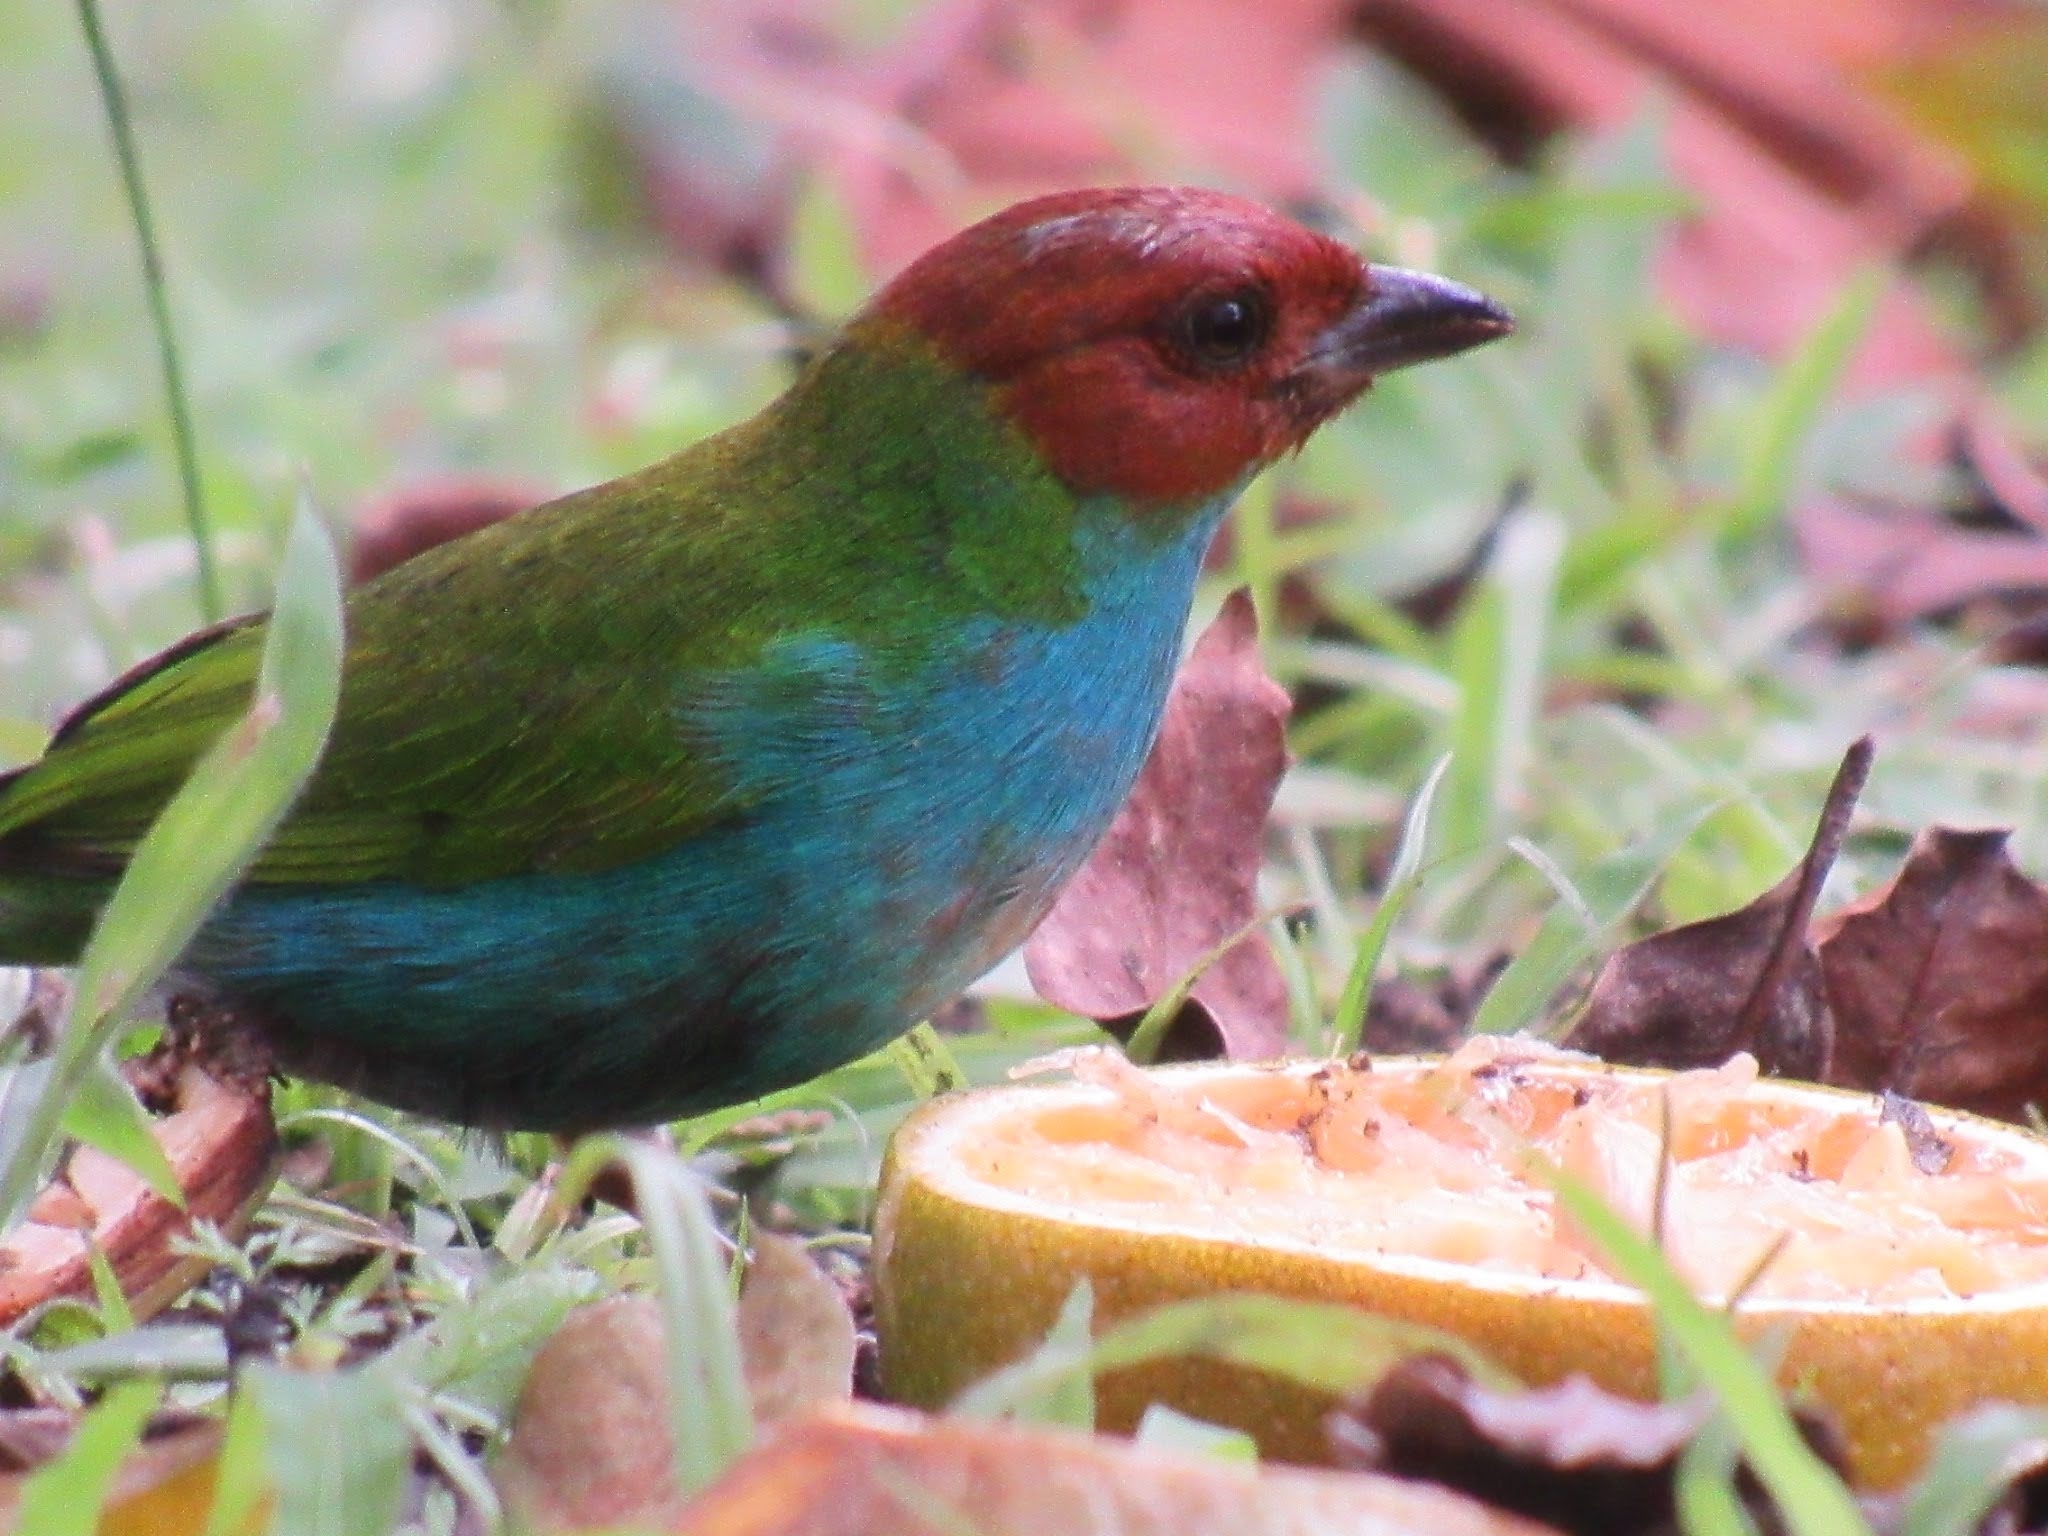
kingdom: Animalia
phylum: Chordata
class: Aves
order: Passeriformes
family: Thraupidae
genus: Tangara
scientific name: Tangara gyrola
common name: Bay-headed tanager
